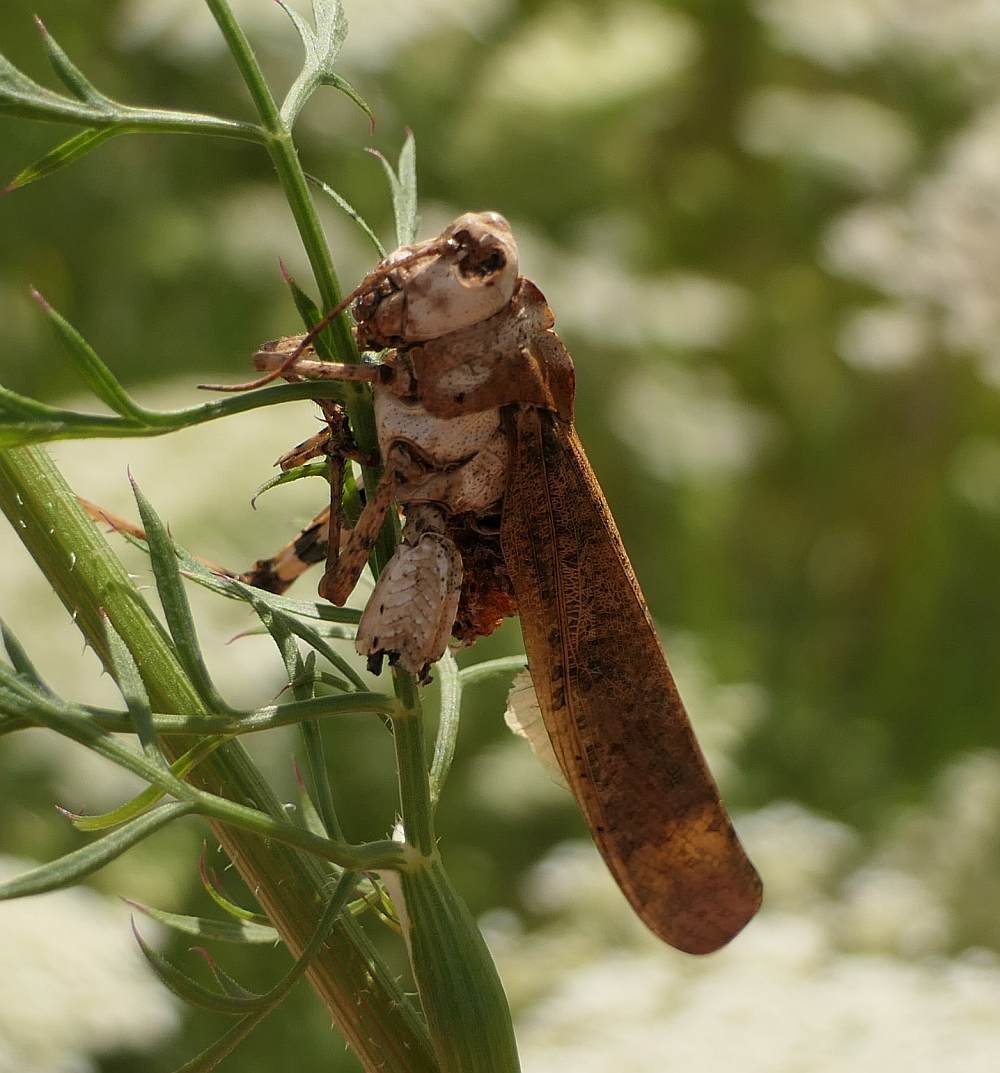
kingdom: Animalia
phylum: Arthropoda
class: Insecta
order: Orthoptera
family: Acrididae
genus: Dissosteira
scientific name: Dissosteira carolina
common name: Carolina grasshopper
